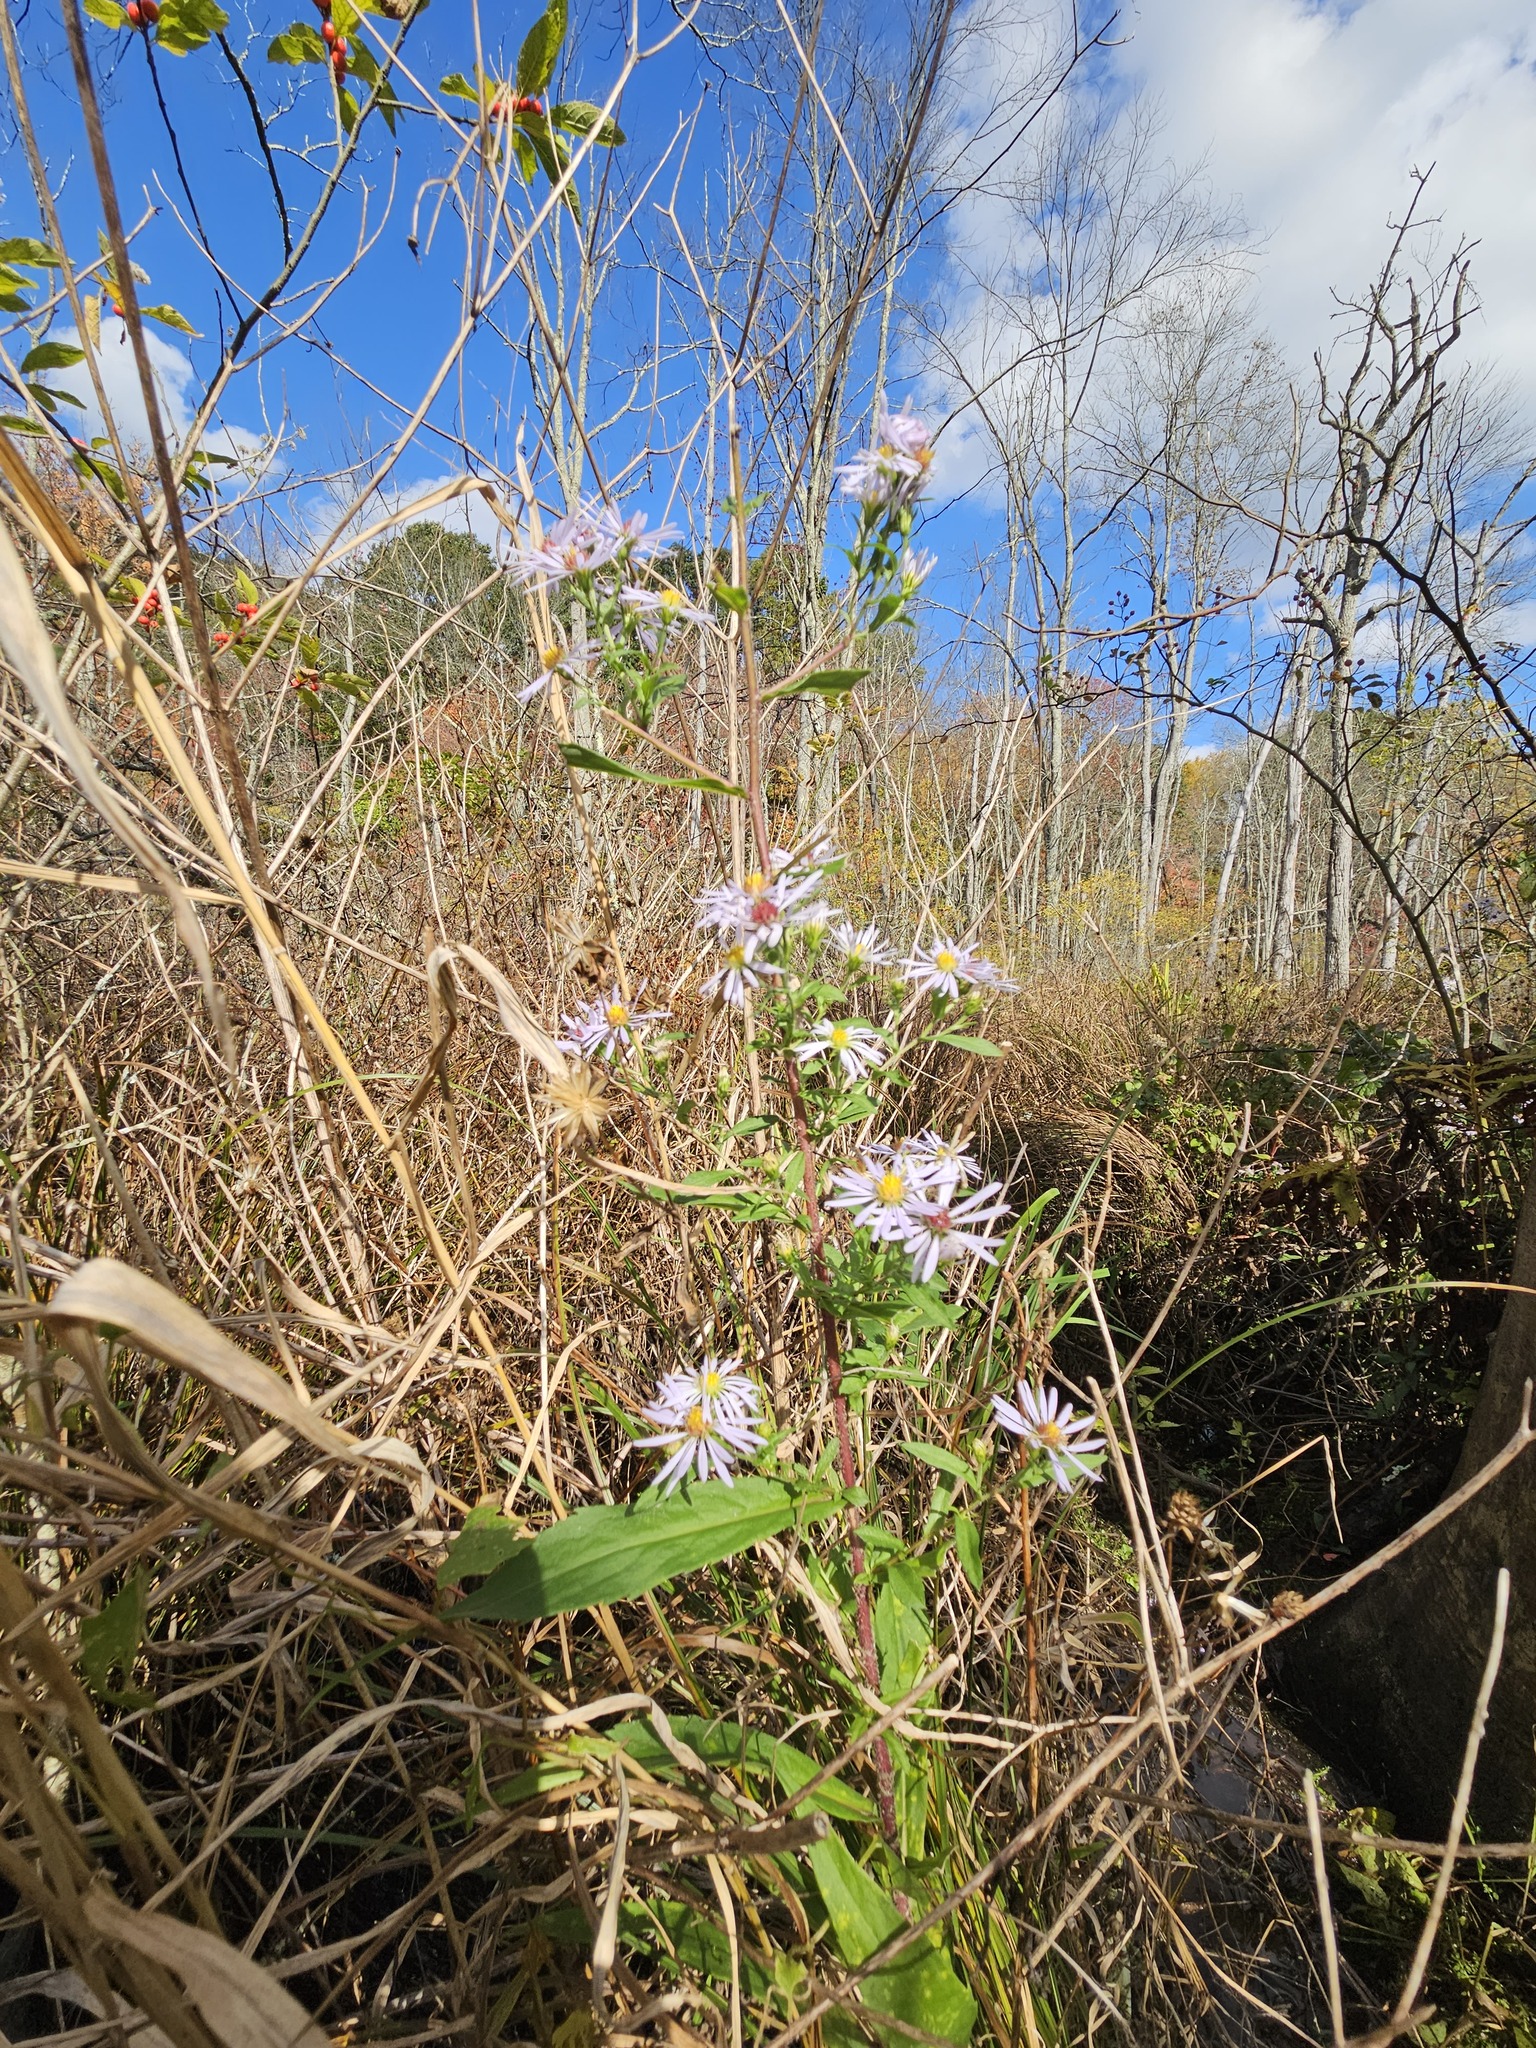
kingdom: Plantae
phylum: Tracheophyta
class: Magnoliopsida
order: Asterales
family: Asteraceae
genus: Symphyotrichum
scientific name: Symphyotrichum puniceum
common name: Bog aster
